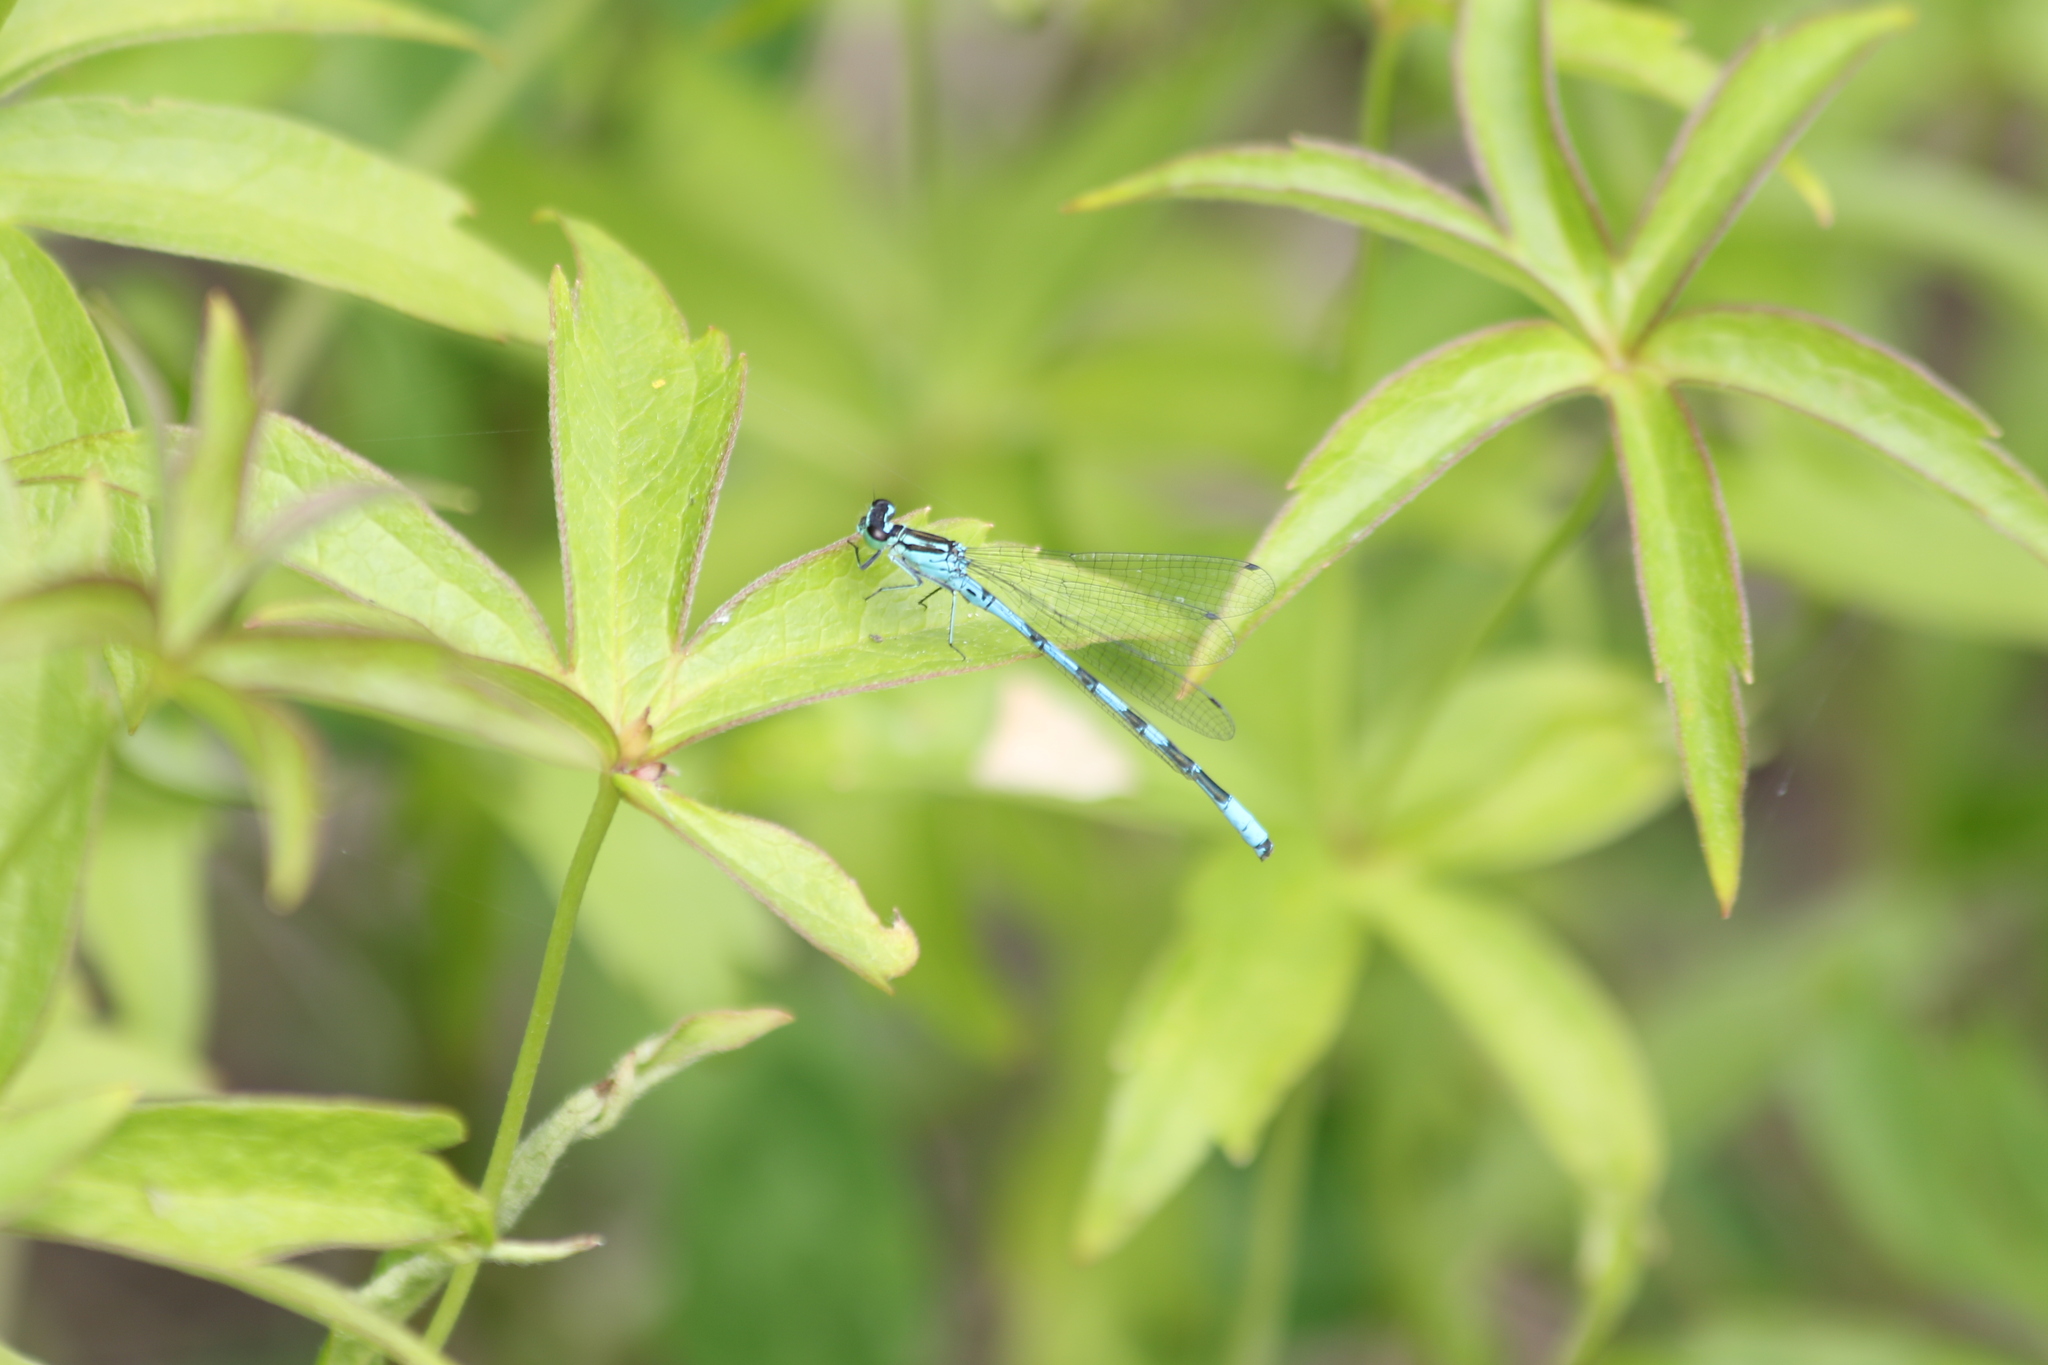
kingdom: Animalia
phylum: Arthropoda
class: Insecta
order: Odonata
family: Coenagrionidae
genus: Coenagrion
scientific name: Coenagrion hastulatum
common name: Spearhead bluet
